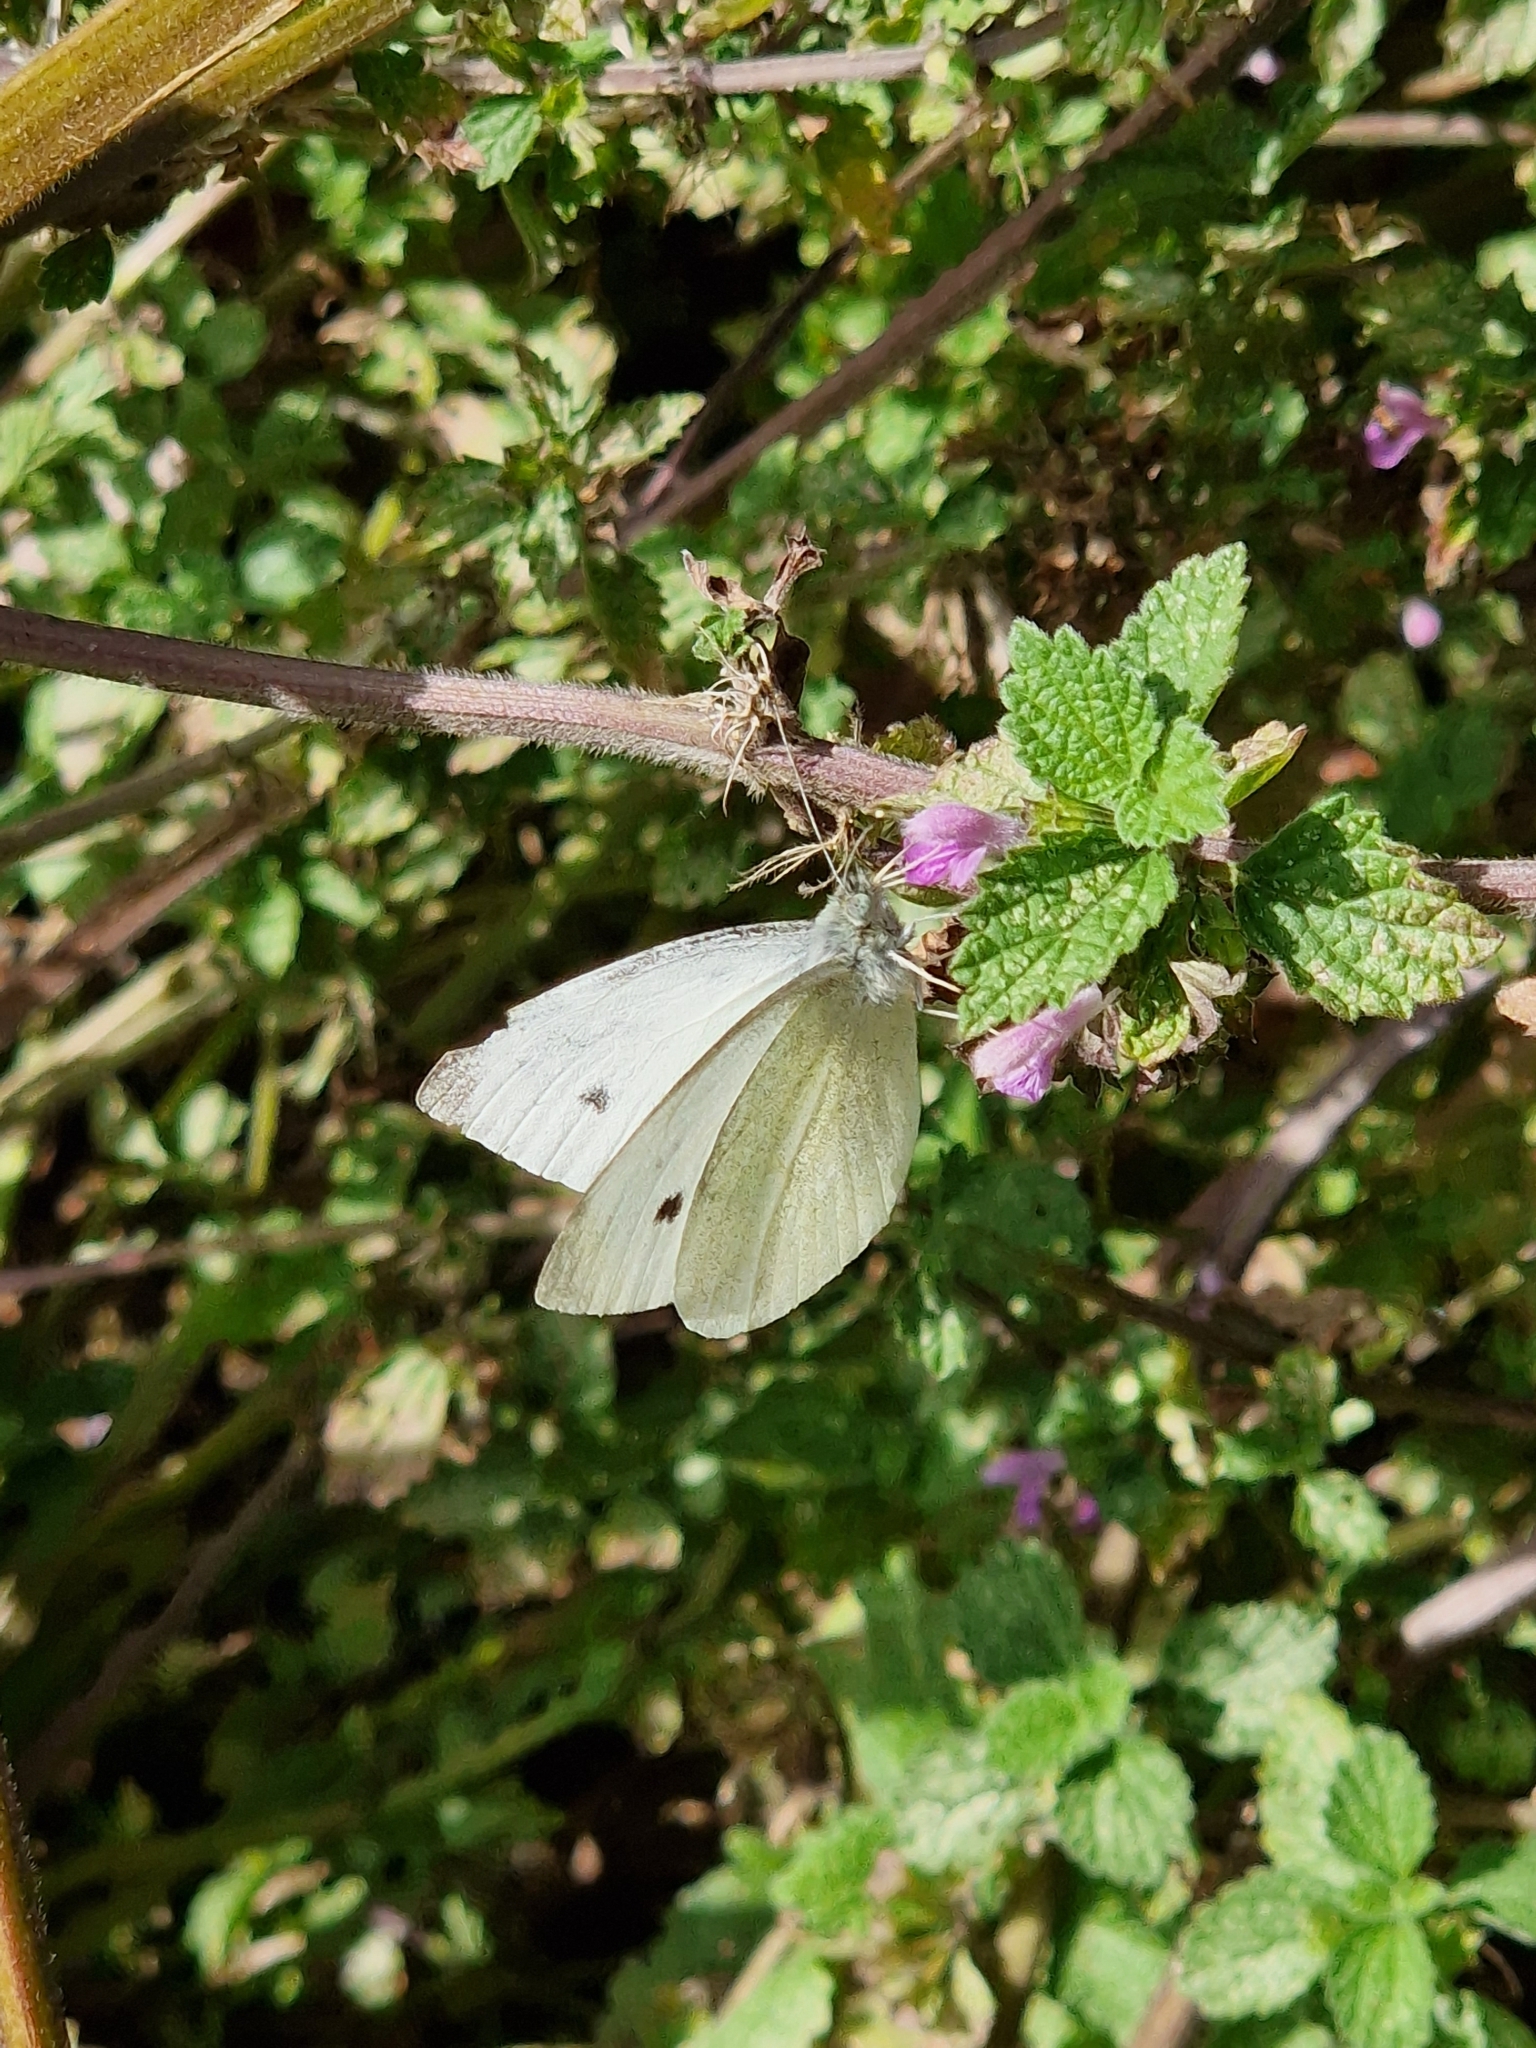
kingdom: Animalia
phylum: Arthropoda
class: Insecta
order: Lepidoptera
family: Pieridae
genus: Pieris
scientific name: Pieris rapae
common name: Small white
